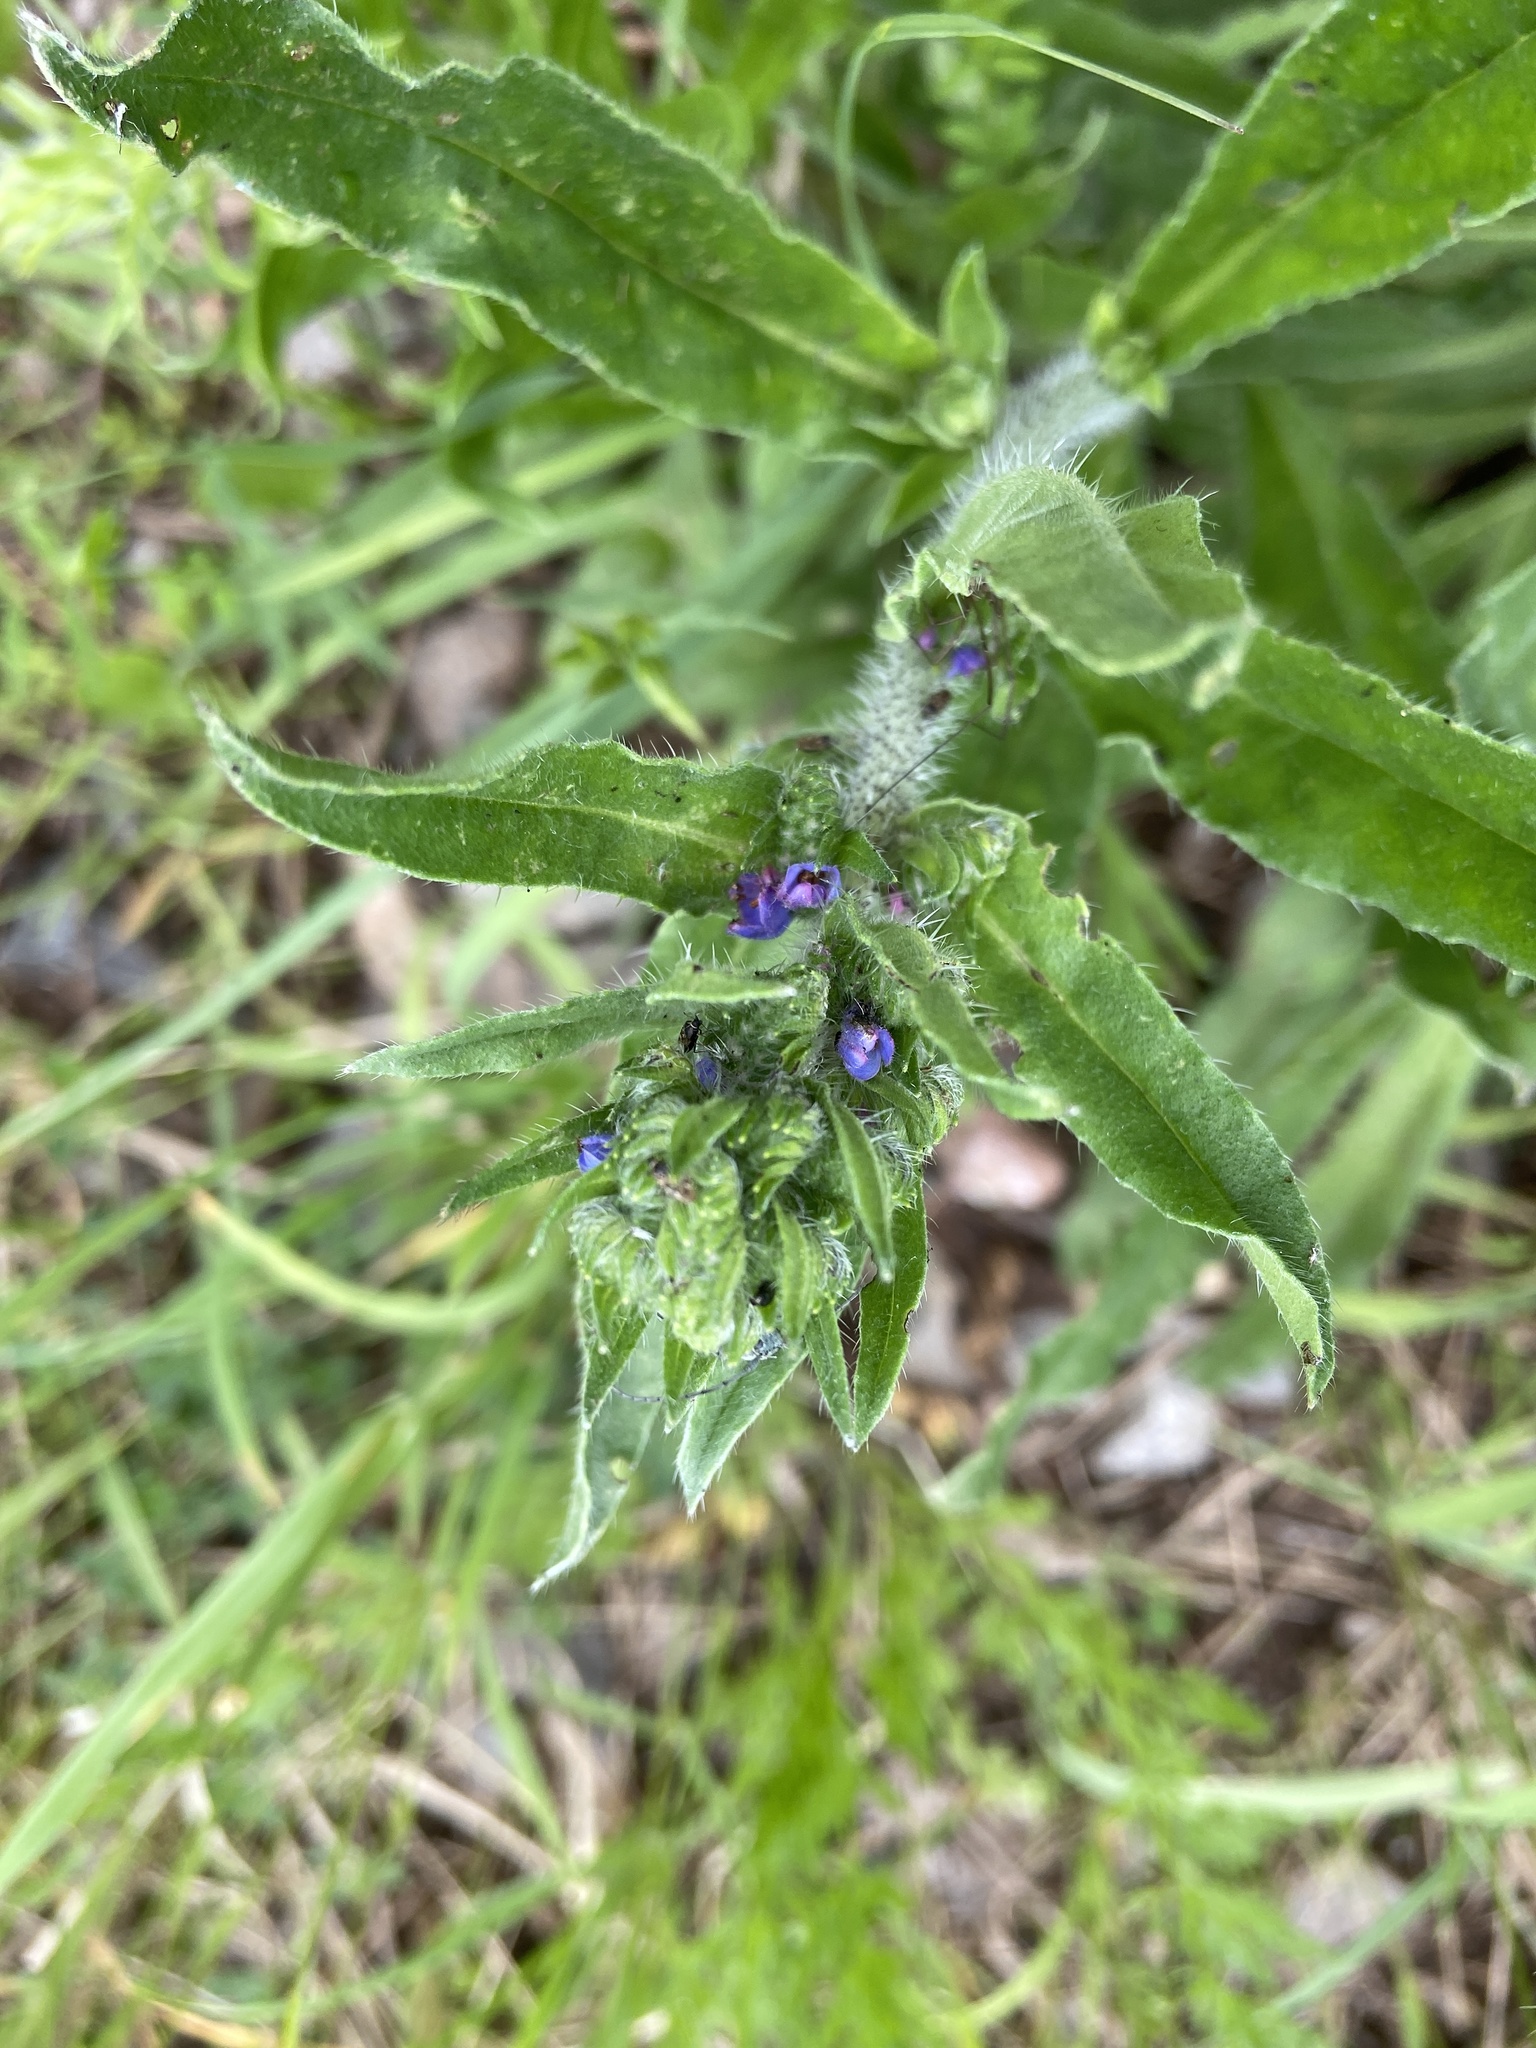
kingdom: Plantae
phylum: Tracheophyta
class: Magnoliopsida
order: Boraginales
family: Boraginaceae
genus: Echium
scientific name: Echium vulgare
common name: Common viper's bugloss
